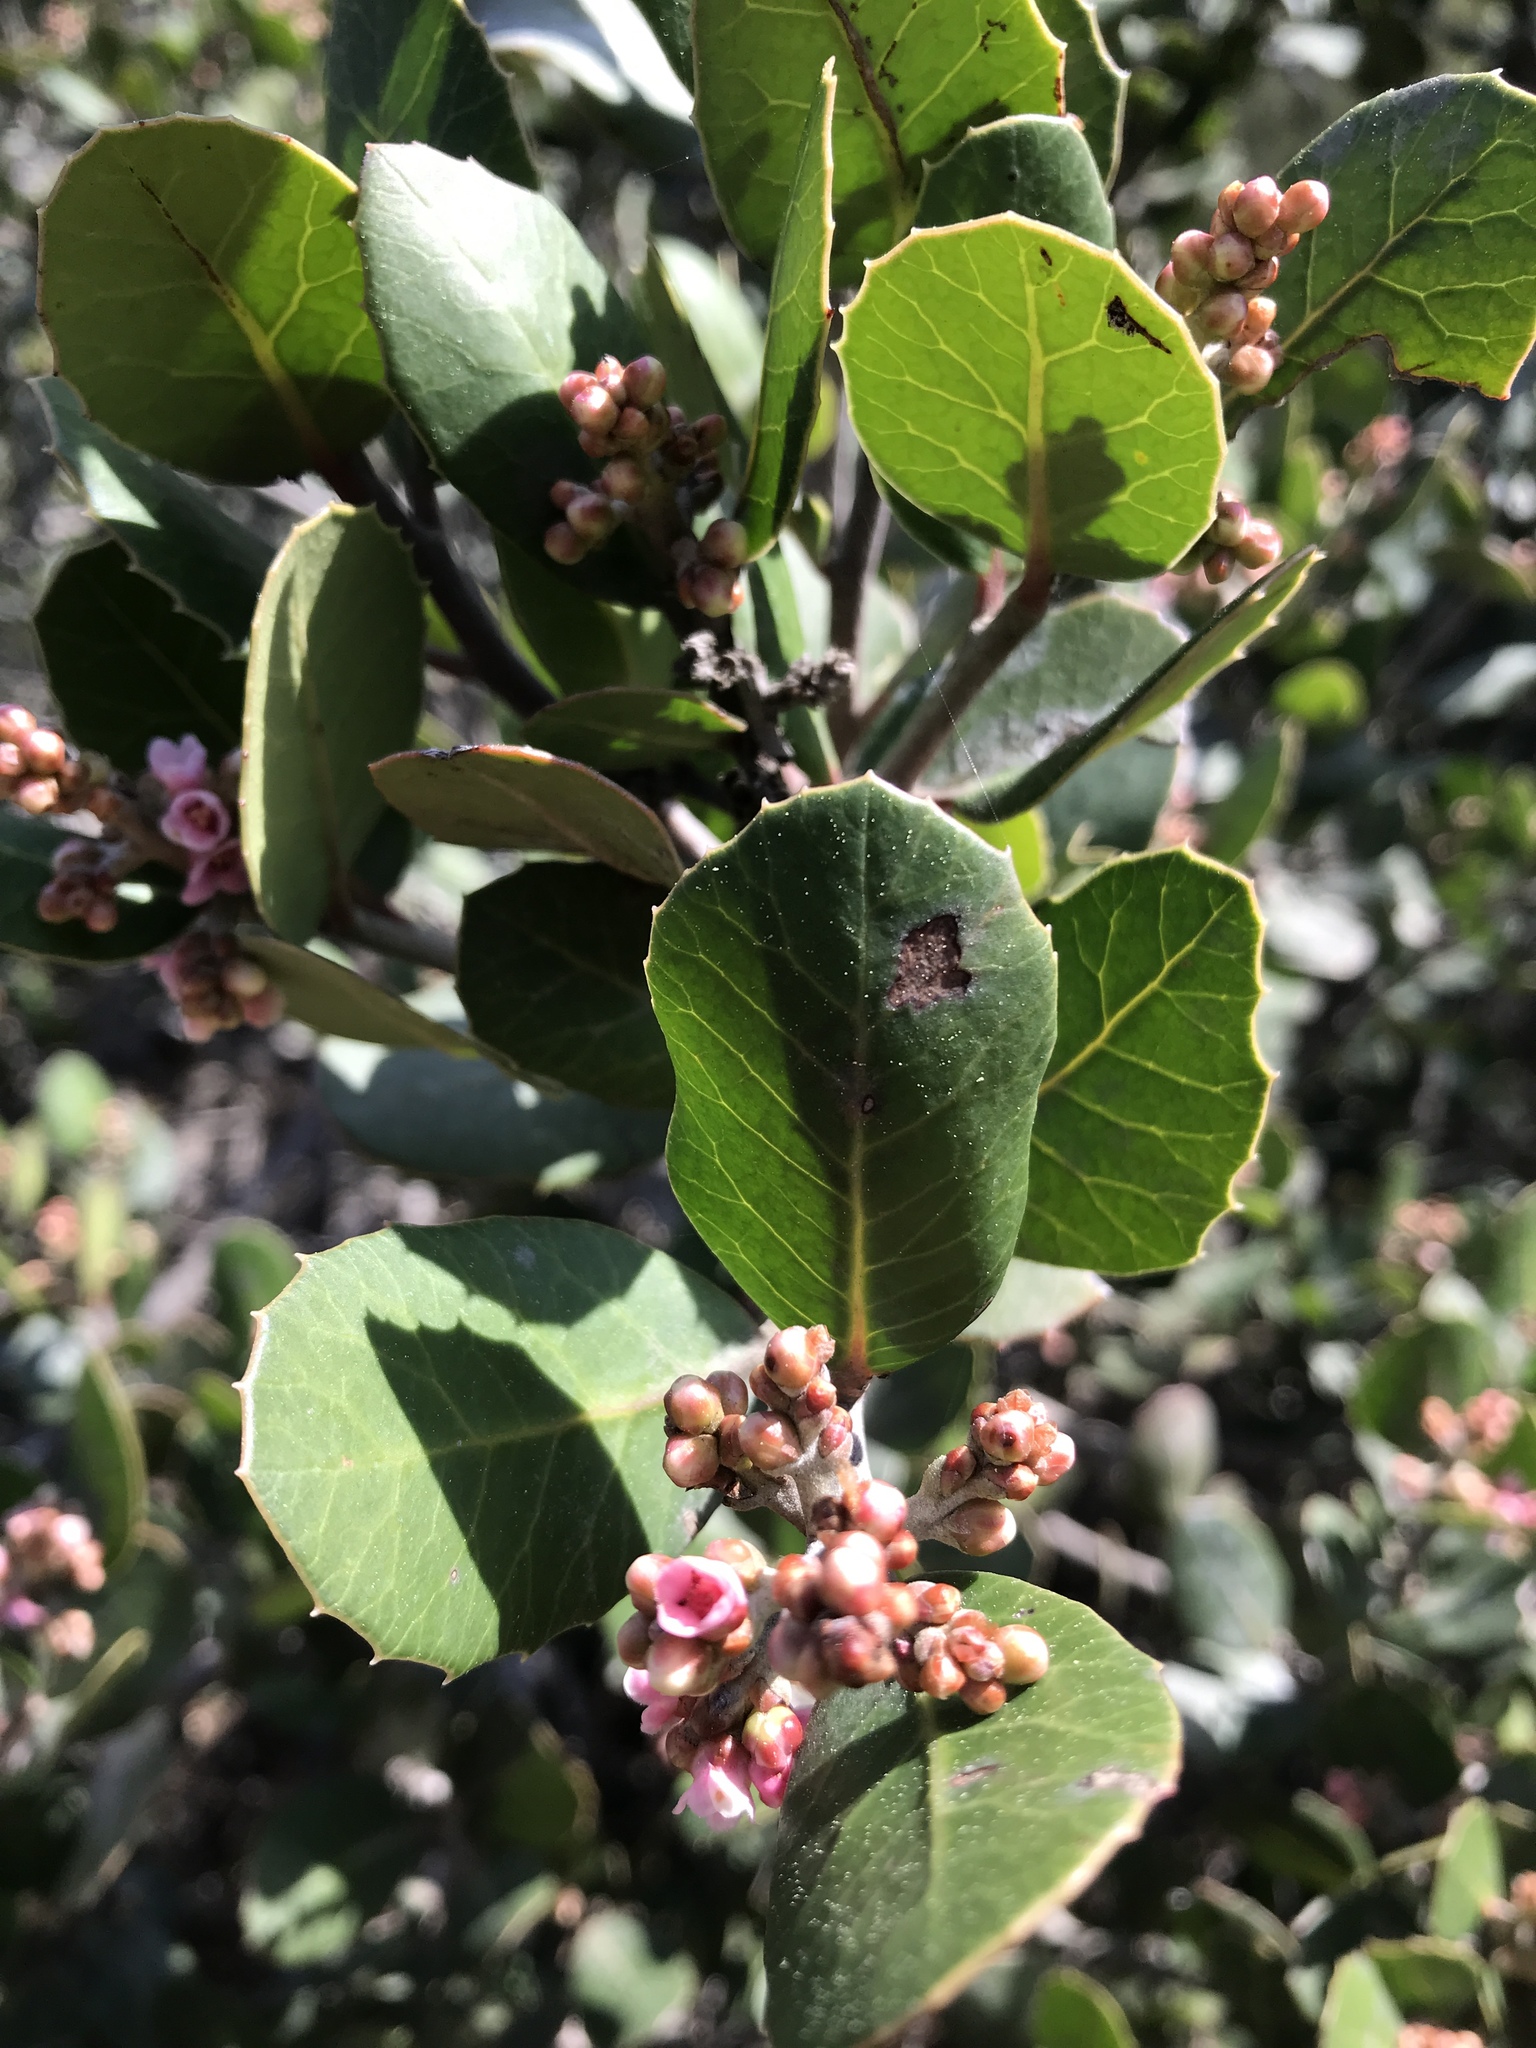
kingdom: Plantae
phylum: Tracheophyta
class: Magnoliopsida
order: Sapindales
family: Anacardiaceae
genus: Rhus
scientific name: Rhus integrifolia
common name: Lemonade sumac
